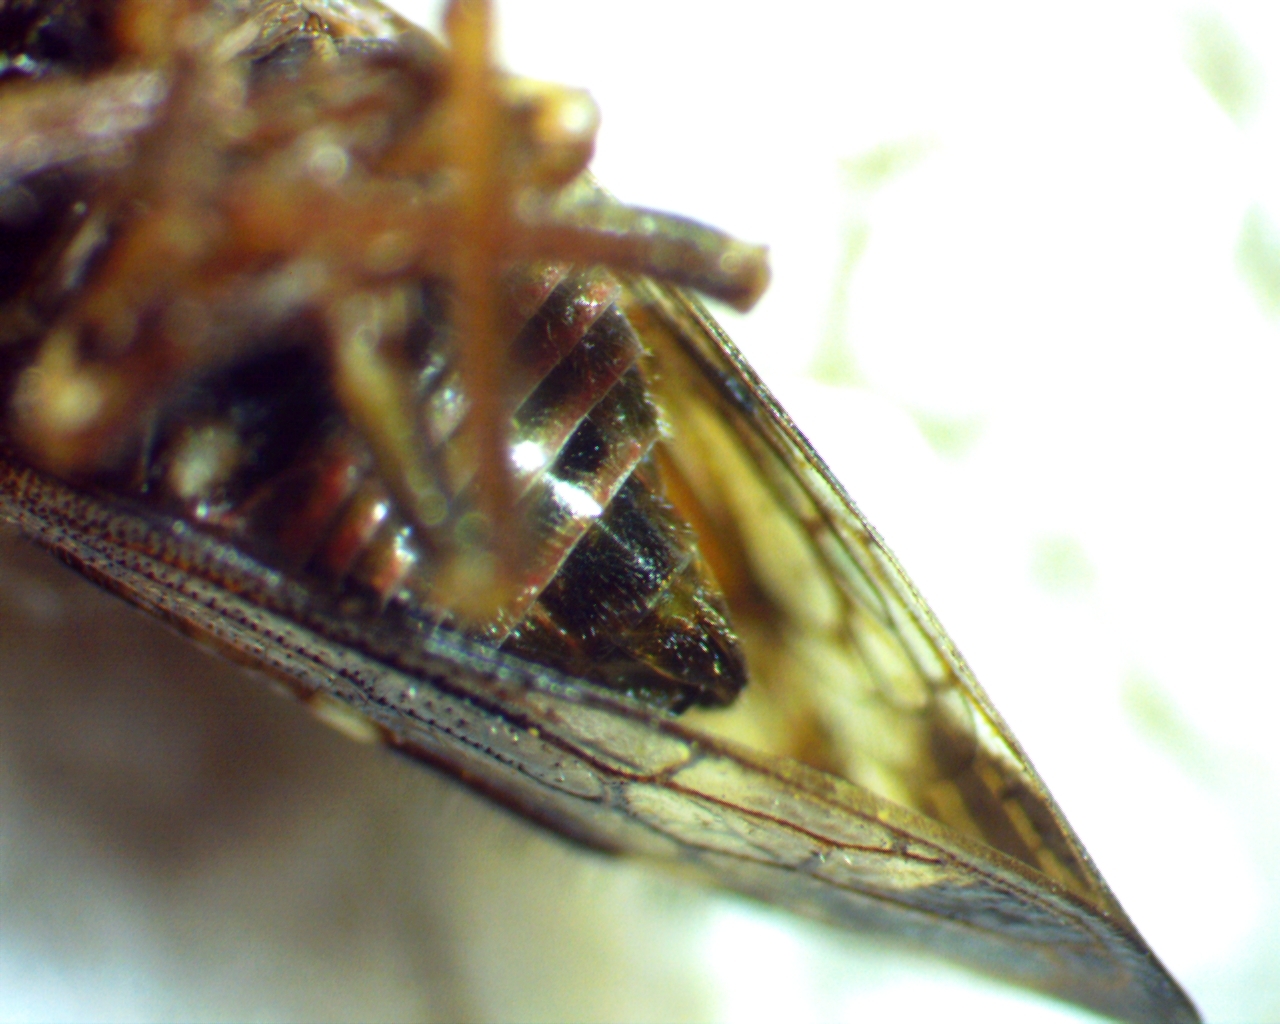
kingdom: Animalia
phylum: Arthropoda
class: Insecta
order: Hemiptera
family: Membracidae
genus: Ophiderma
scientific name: Ophiderma pubescens
